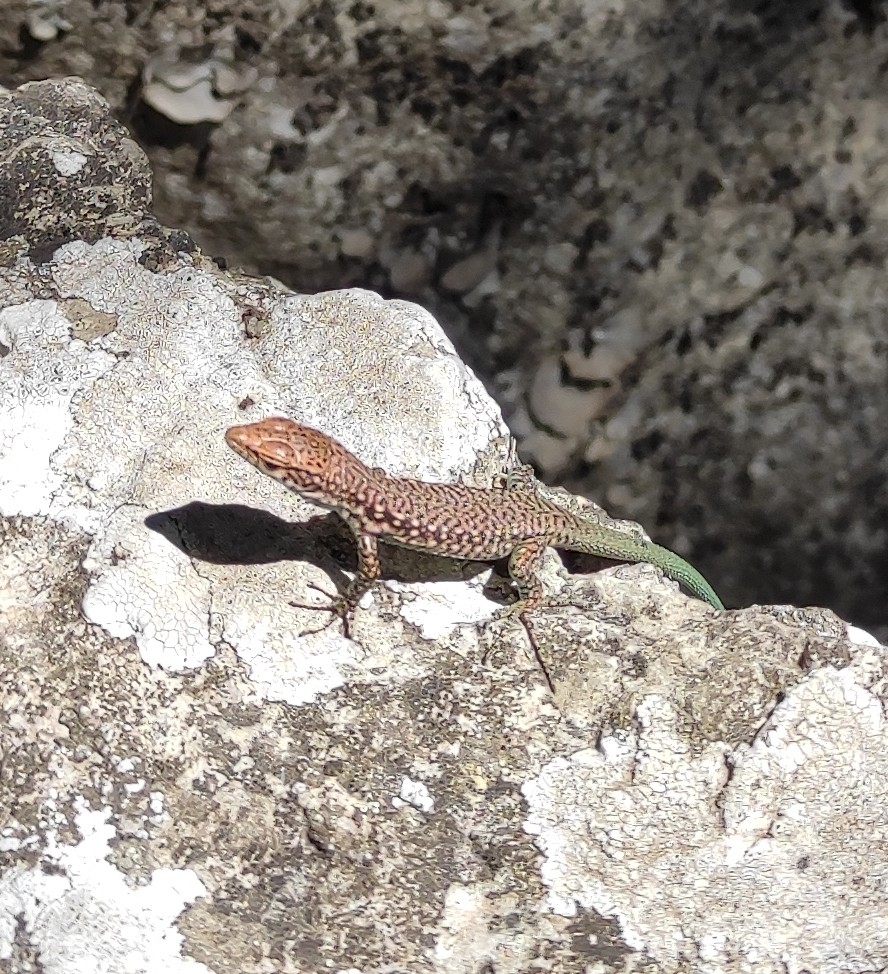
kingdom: Animalia
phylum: Chordata
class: Squamata
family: Lacertidae
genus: Darevskia
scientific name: Darevskia lindholmi
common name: Crimean rock lizard
